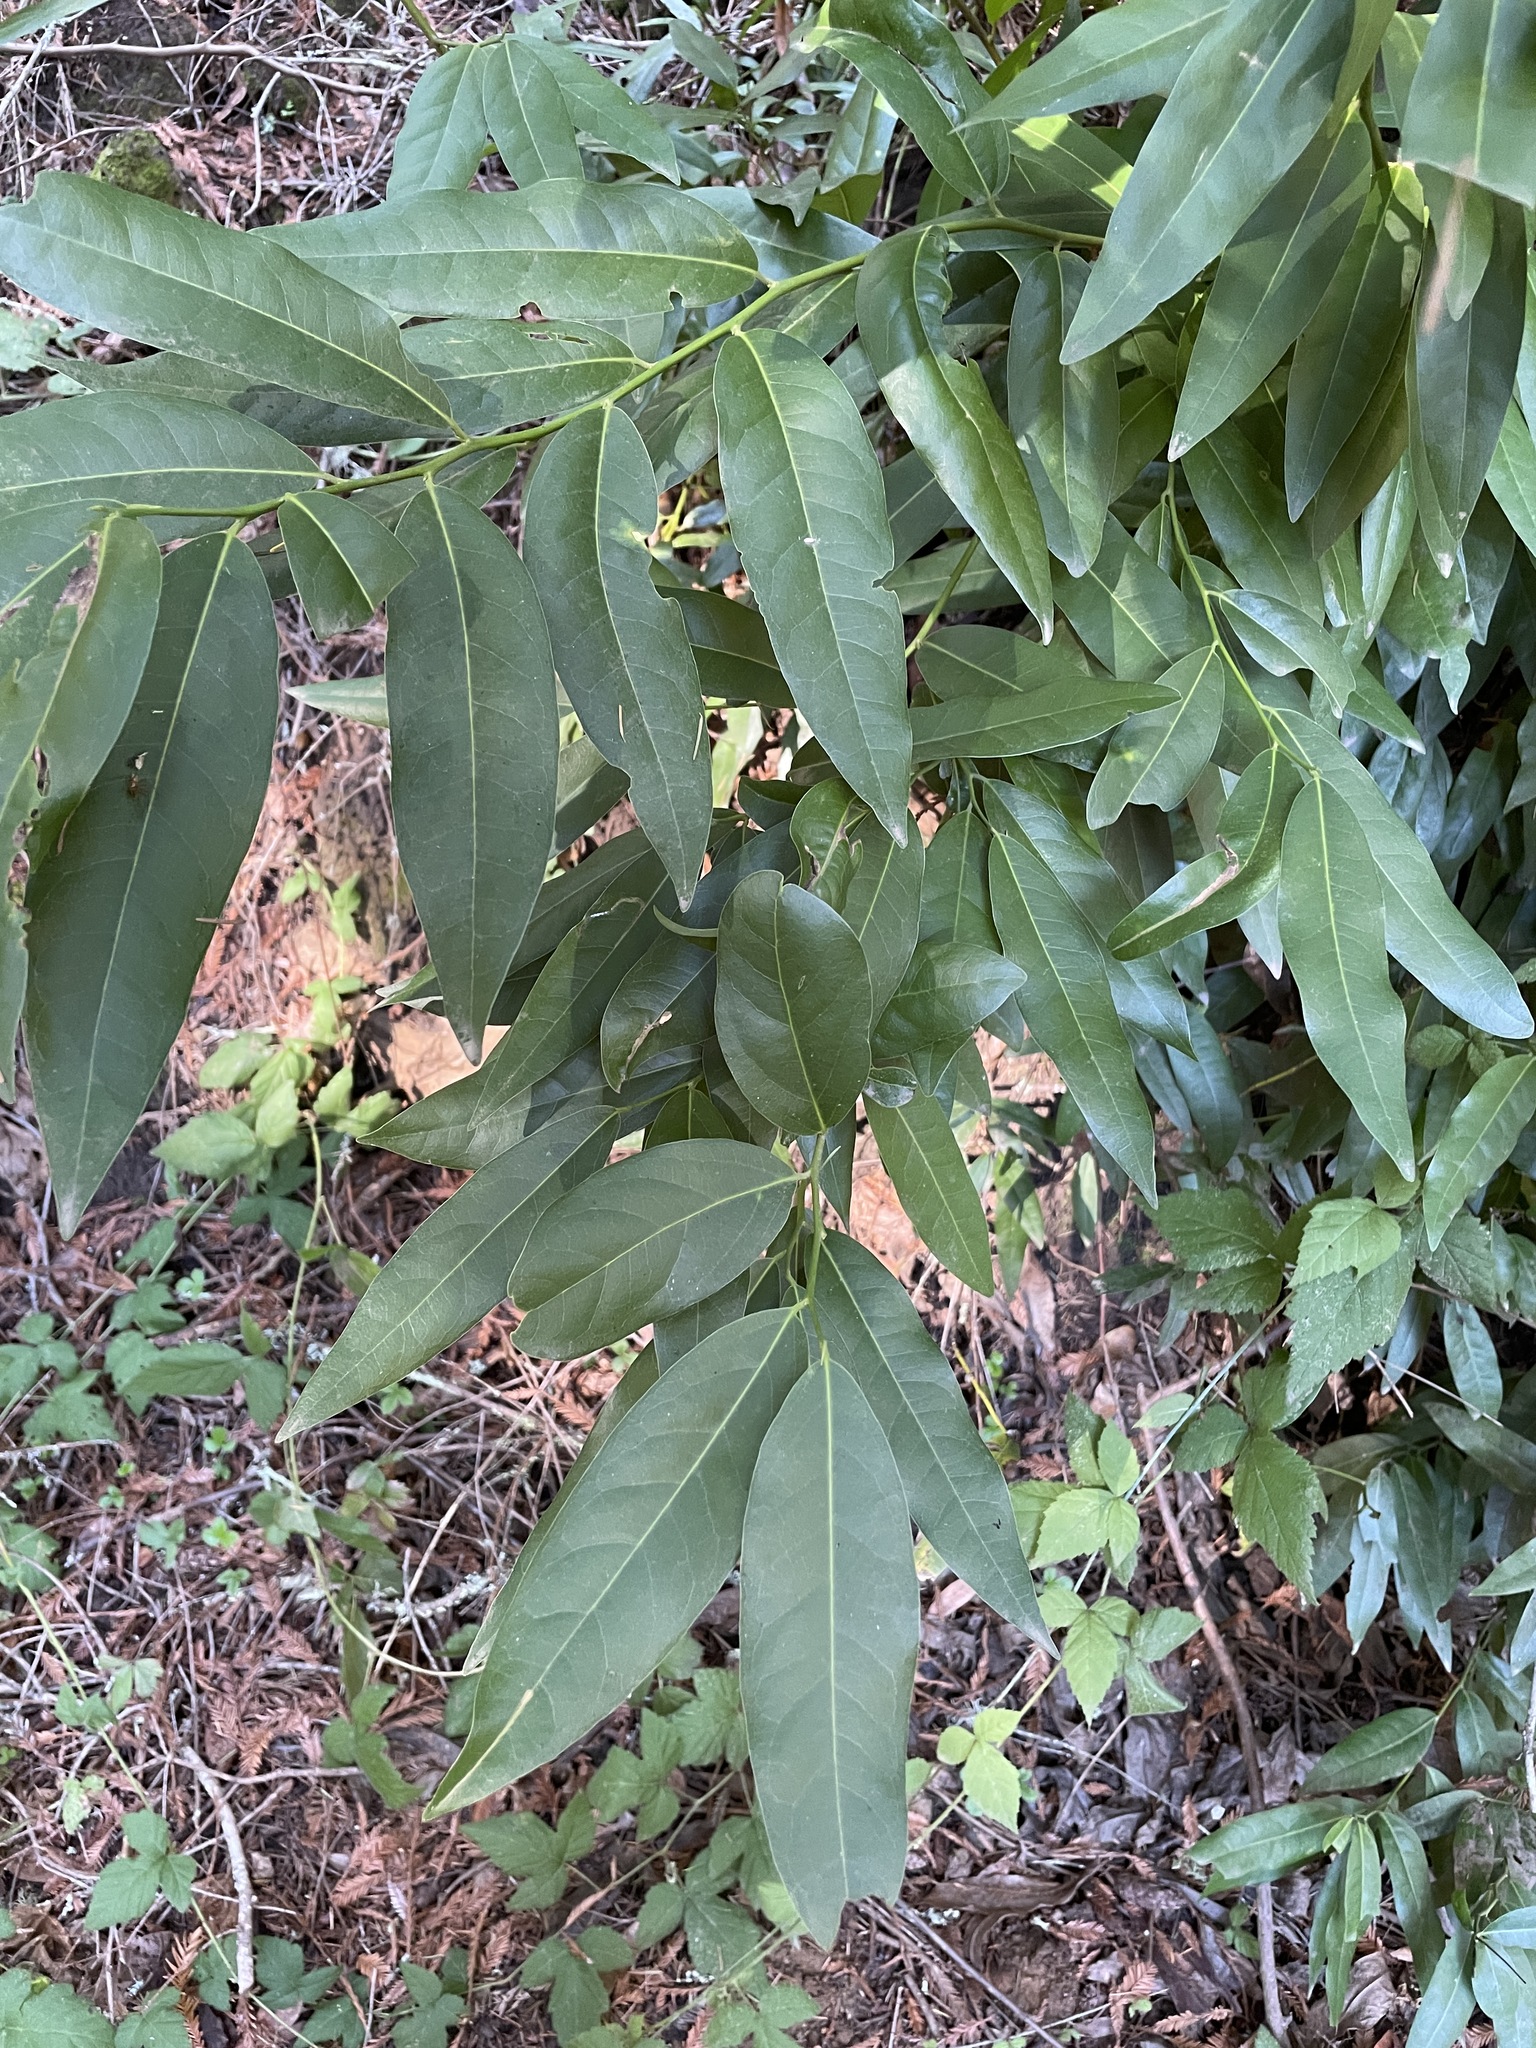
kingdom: Plantae
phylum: Tracheophyta
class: Magnoliopsida
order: Laurales
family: Lauraceae
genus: Umbellularia
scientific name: Umbellularia californica
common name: California bay
